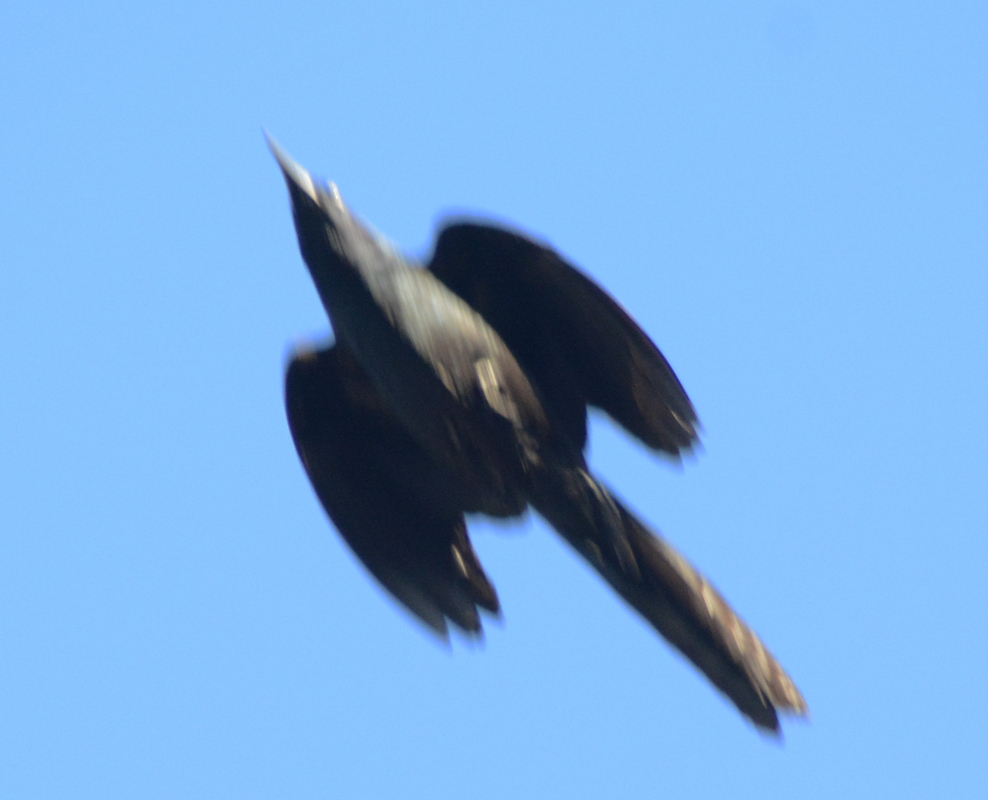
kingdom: Animalia
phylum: Chordata
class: Aves
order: Passeriformes
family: Icteridae
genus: Quiscalus
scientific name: Quiscalus mexicanus
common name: Great-tailed grackle
